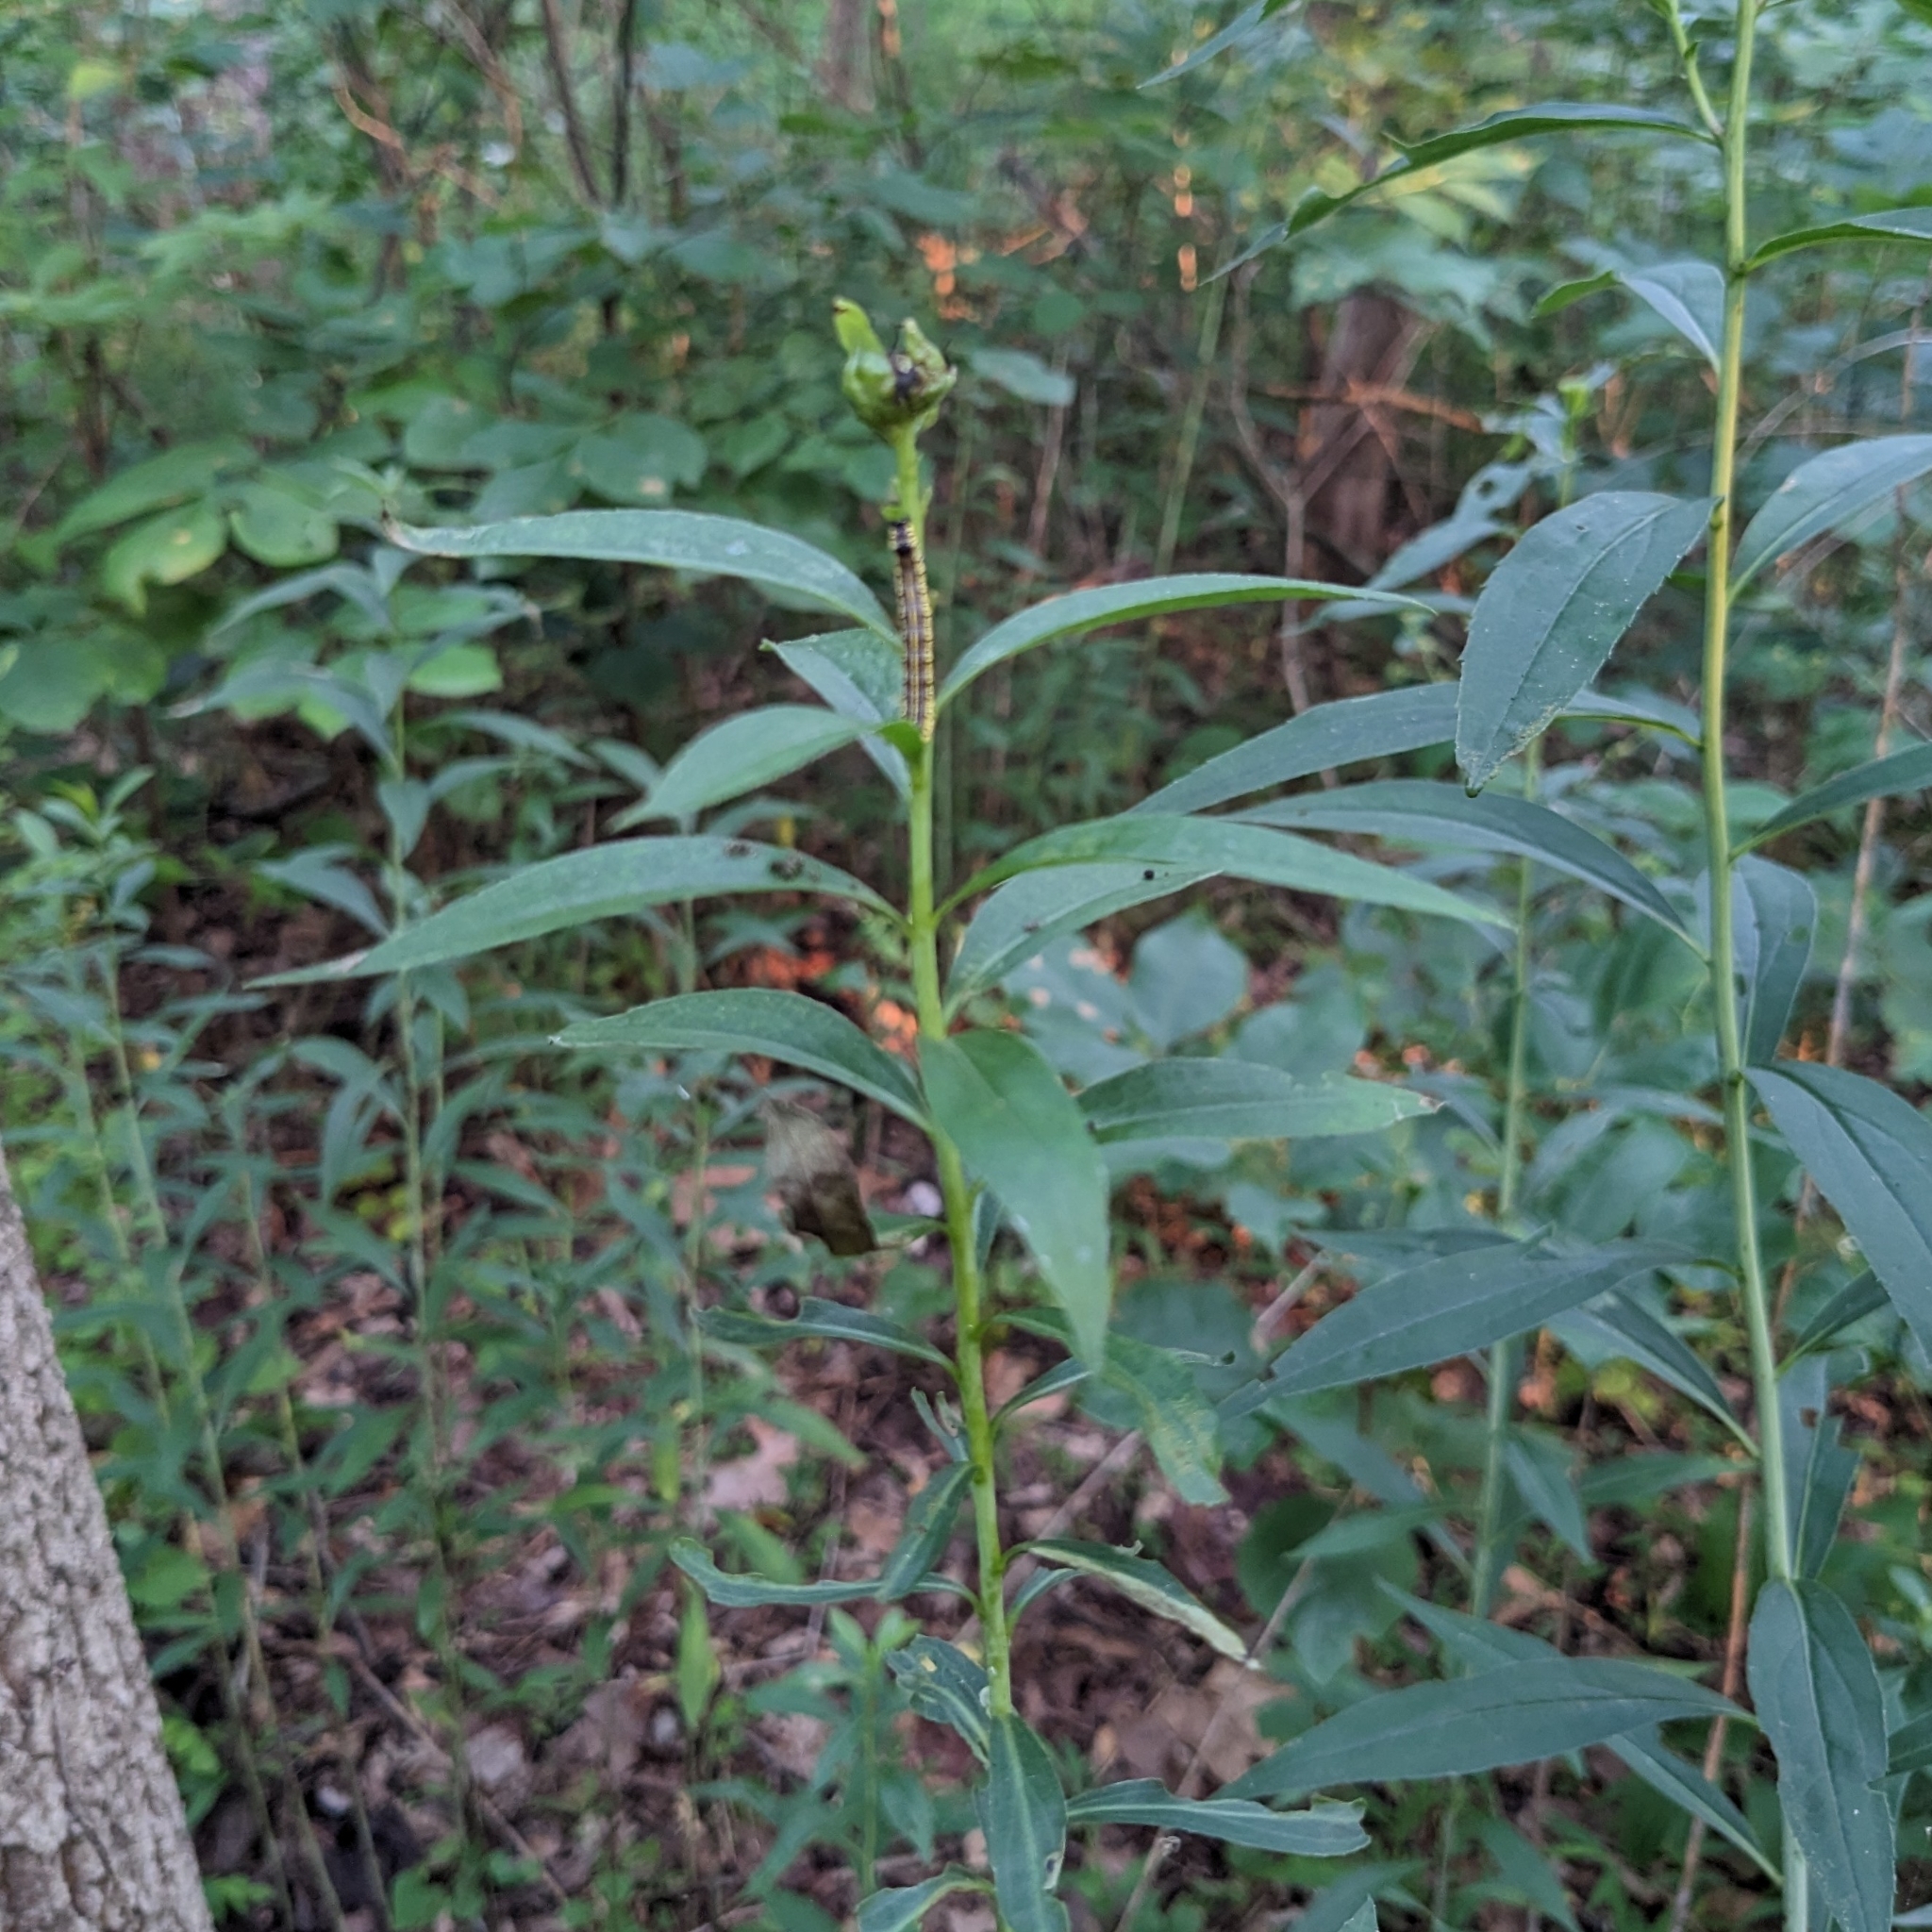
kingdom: Animalia
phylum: Arthropoda
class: Insecta
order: Lepidoptera
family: Noctuidae
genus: Cucullia
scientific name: Cucullia convexipennis
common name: Brown-hooded owlet
